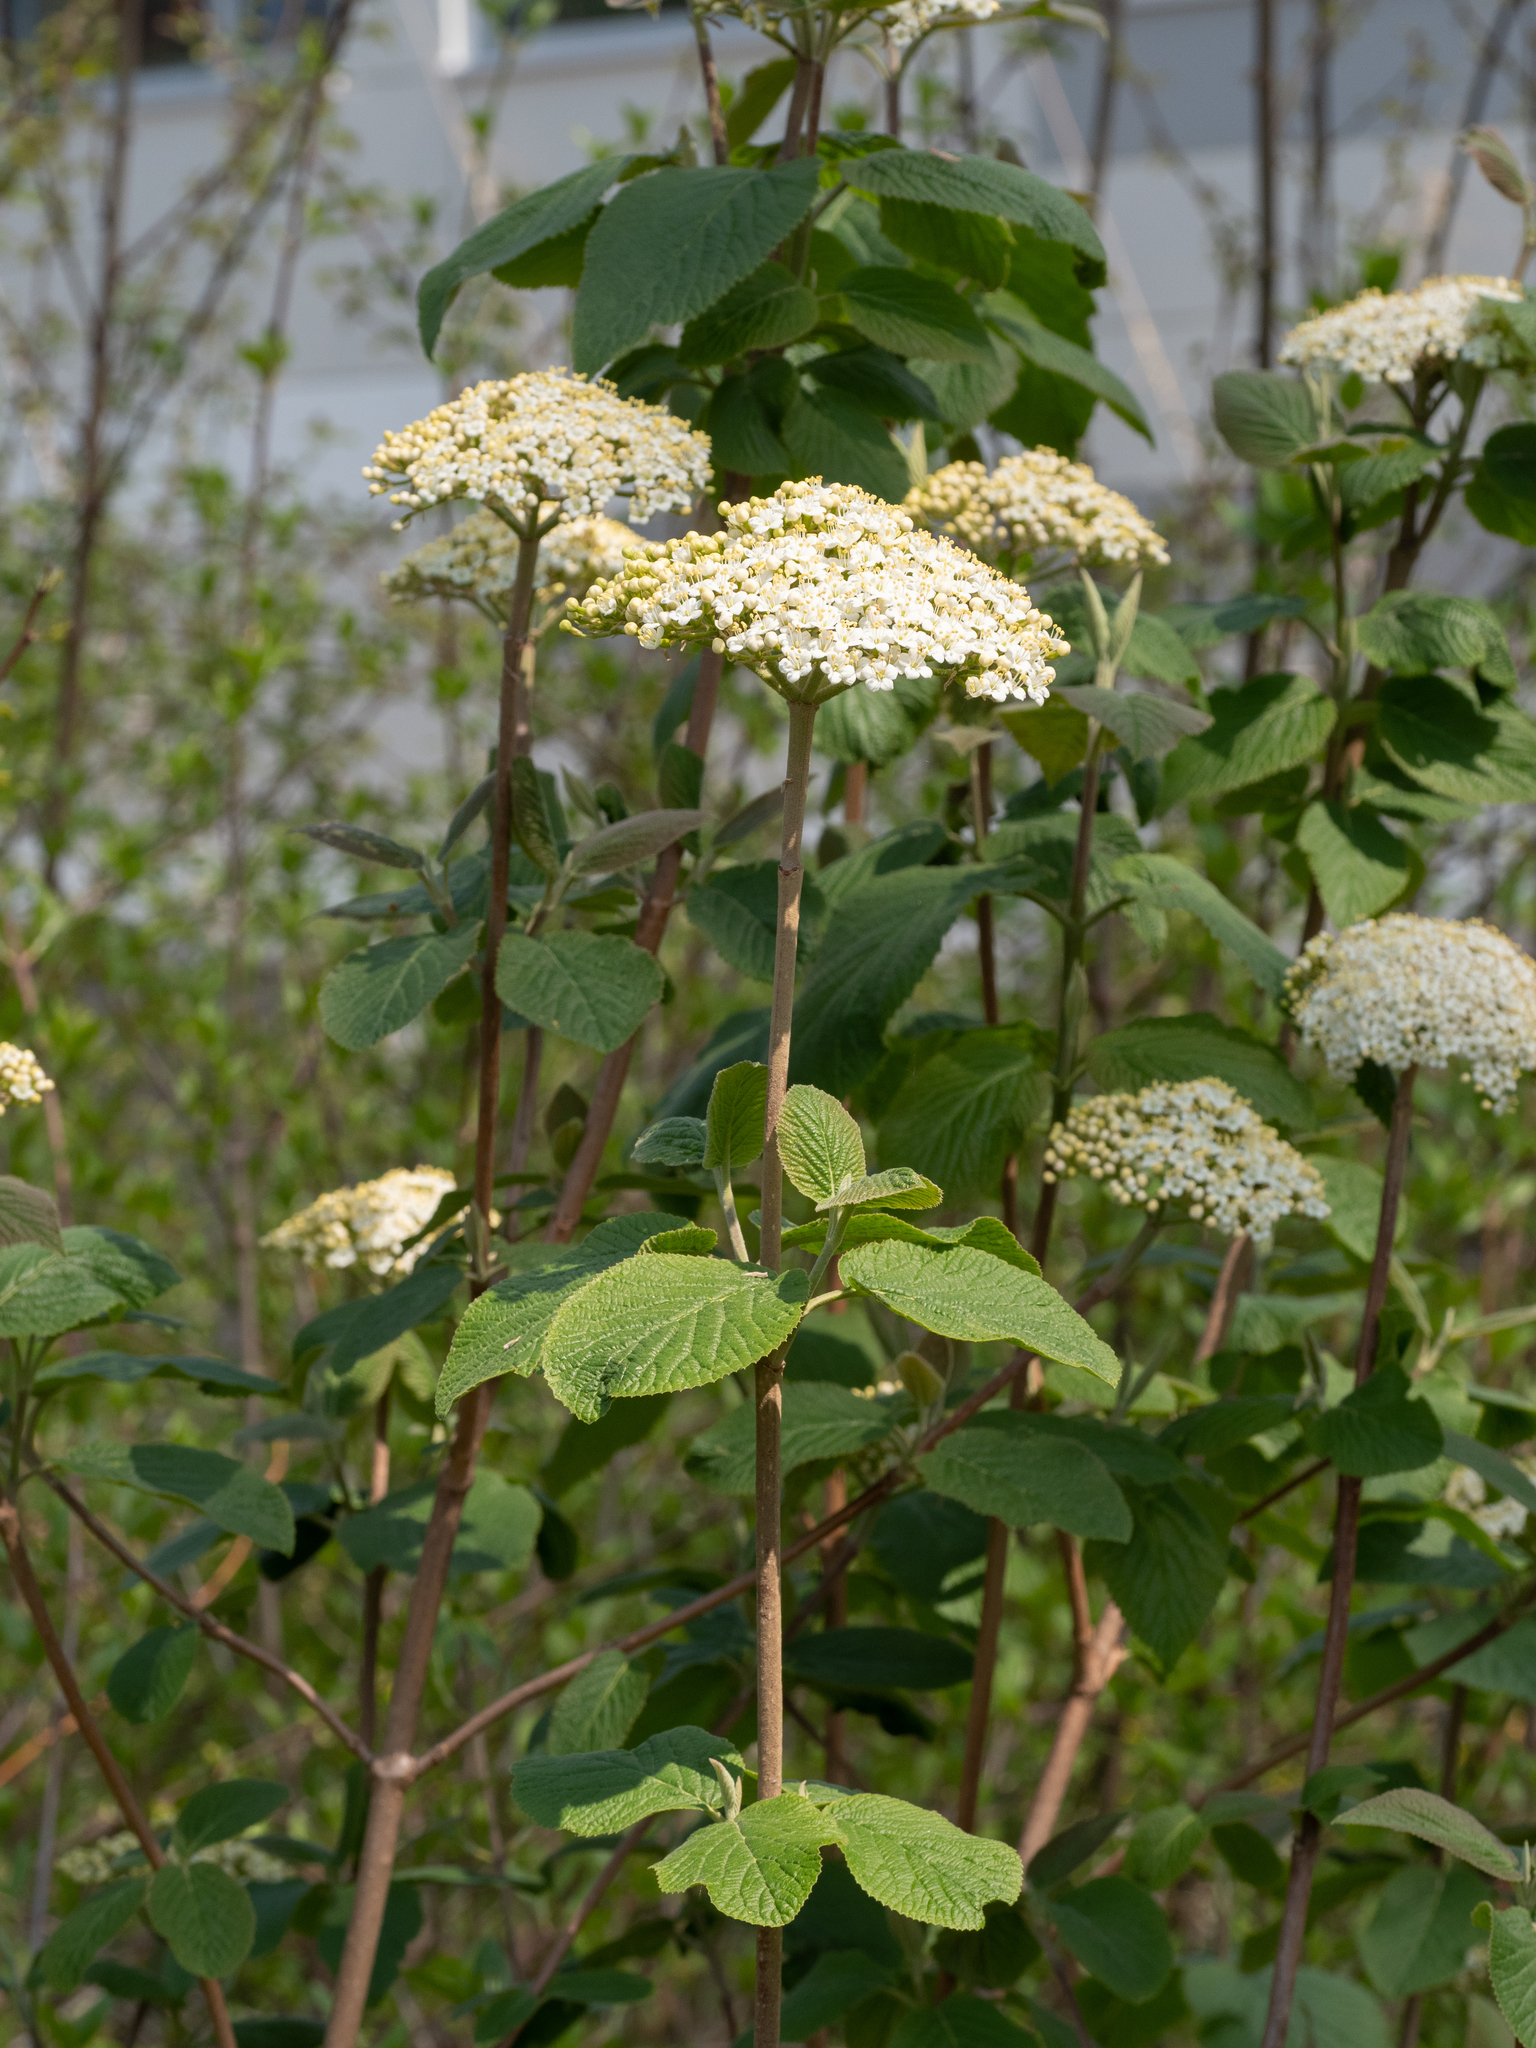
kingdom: Plantae
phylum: Tracheophyta
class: Magnoliopsida
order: Dipsacales
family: Viburnaceae
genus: Viburnum
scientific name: Viburnum lantana
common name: Wayfaring tree
